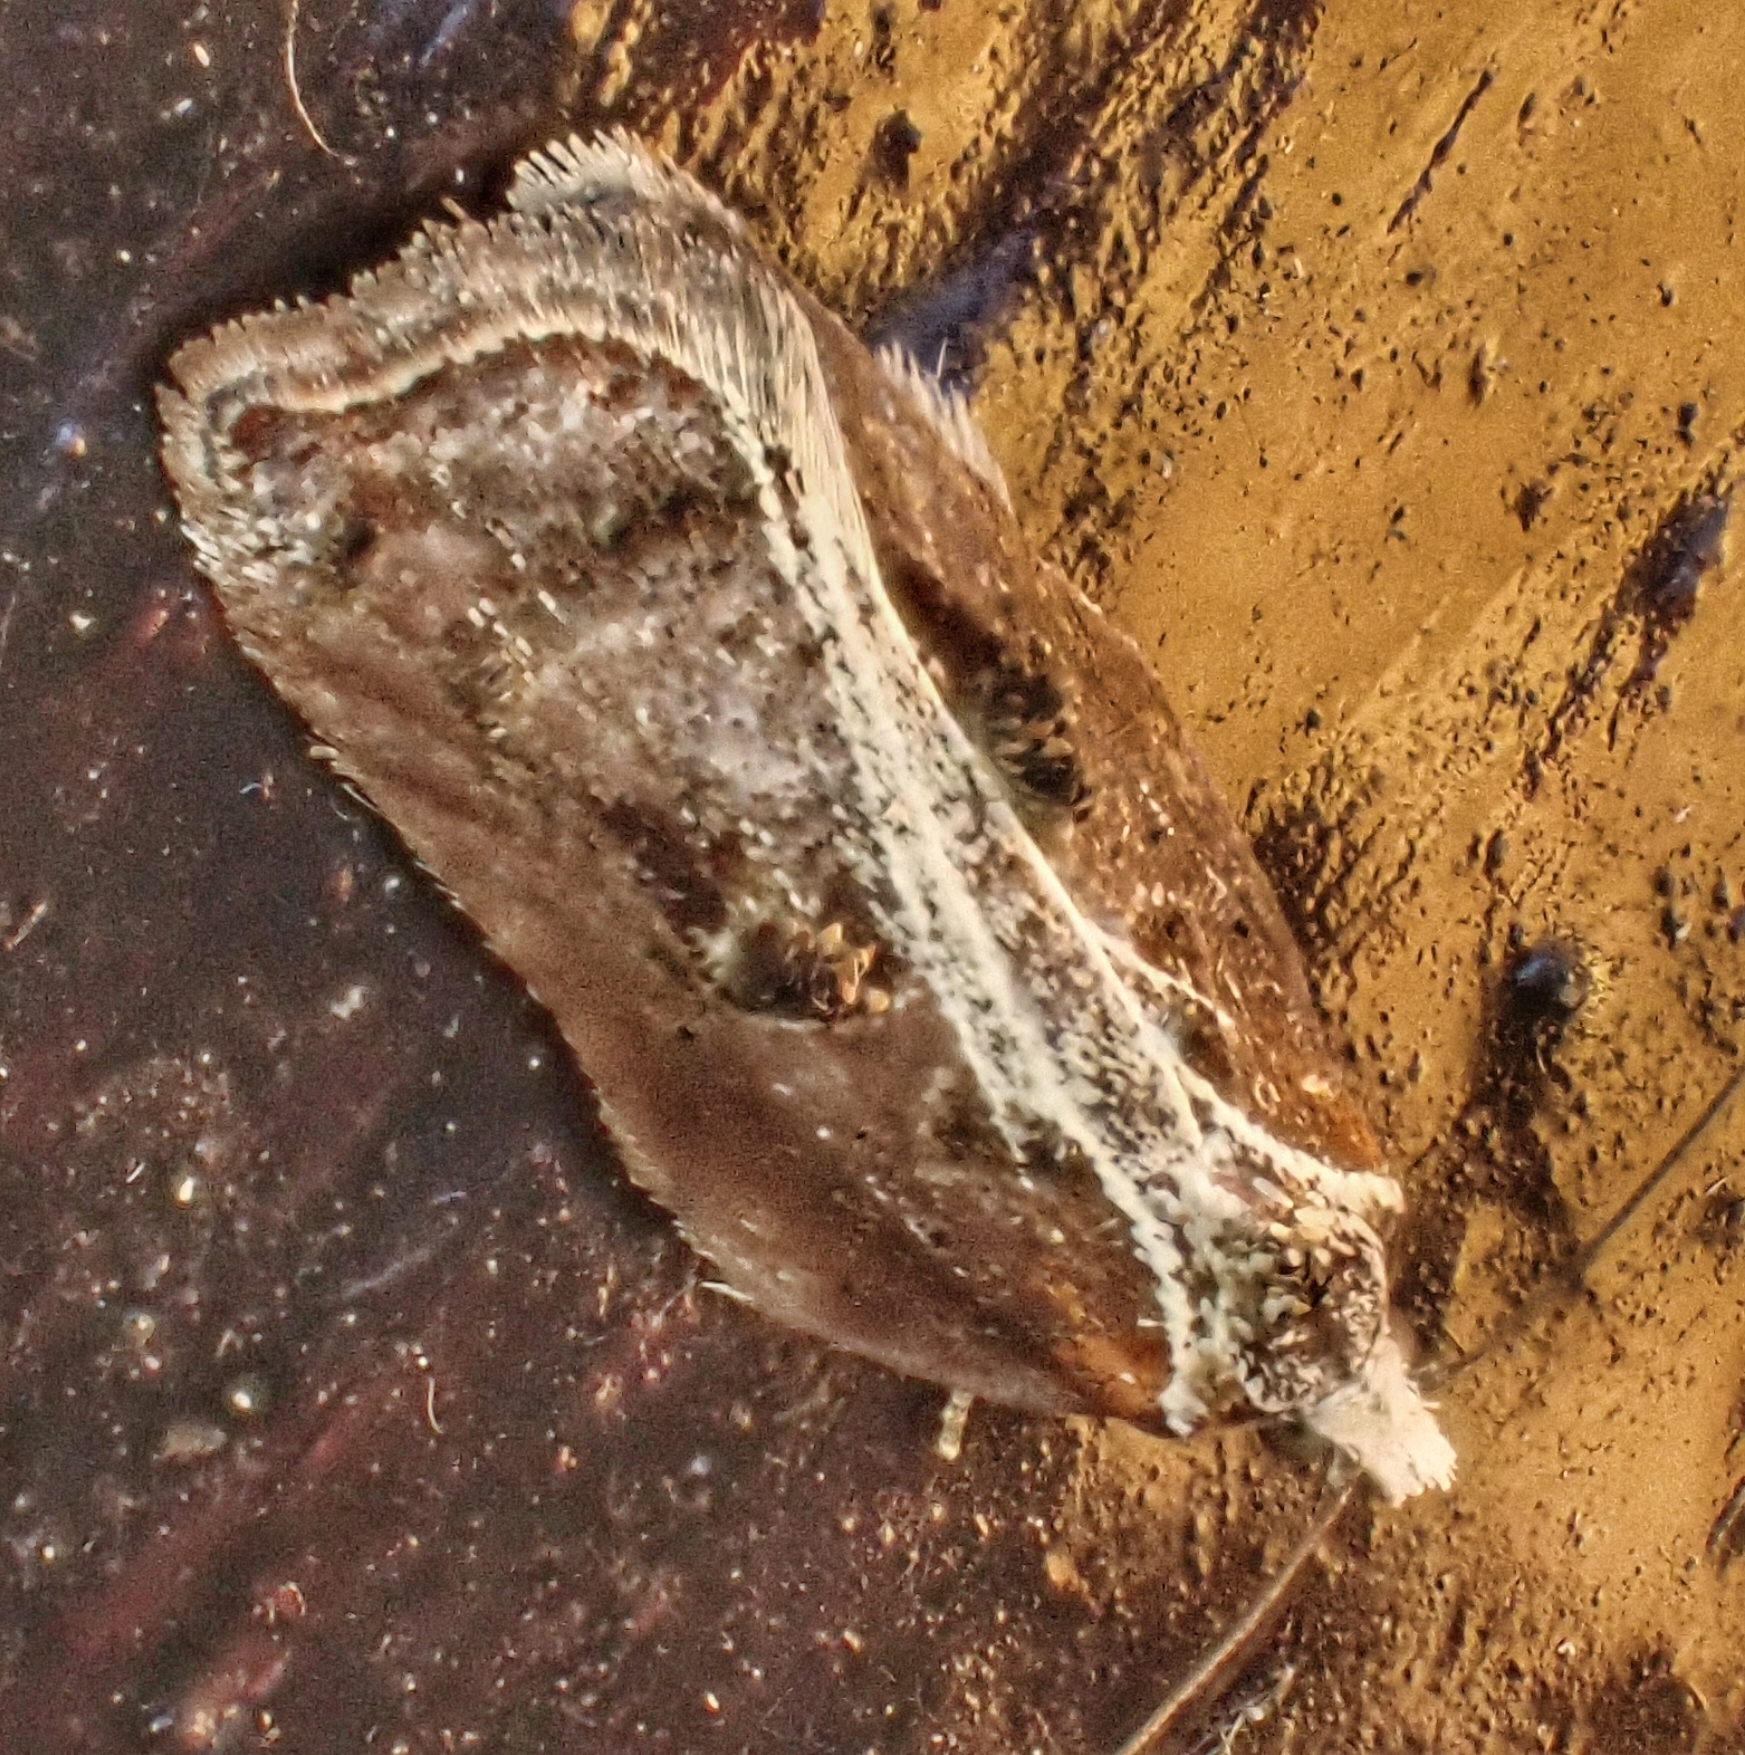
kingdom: Animalia
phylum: Arthropoda
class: Insecta
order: Lepidoptera
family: Tortricidae
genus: Acleris
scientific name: Acleris cristana
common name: Tufted button
